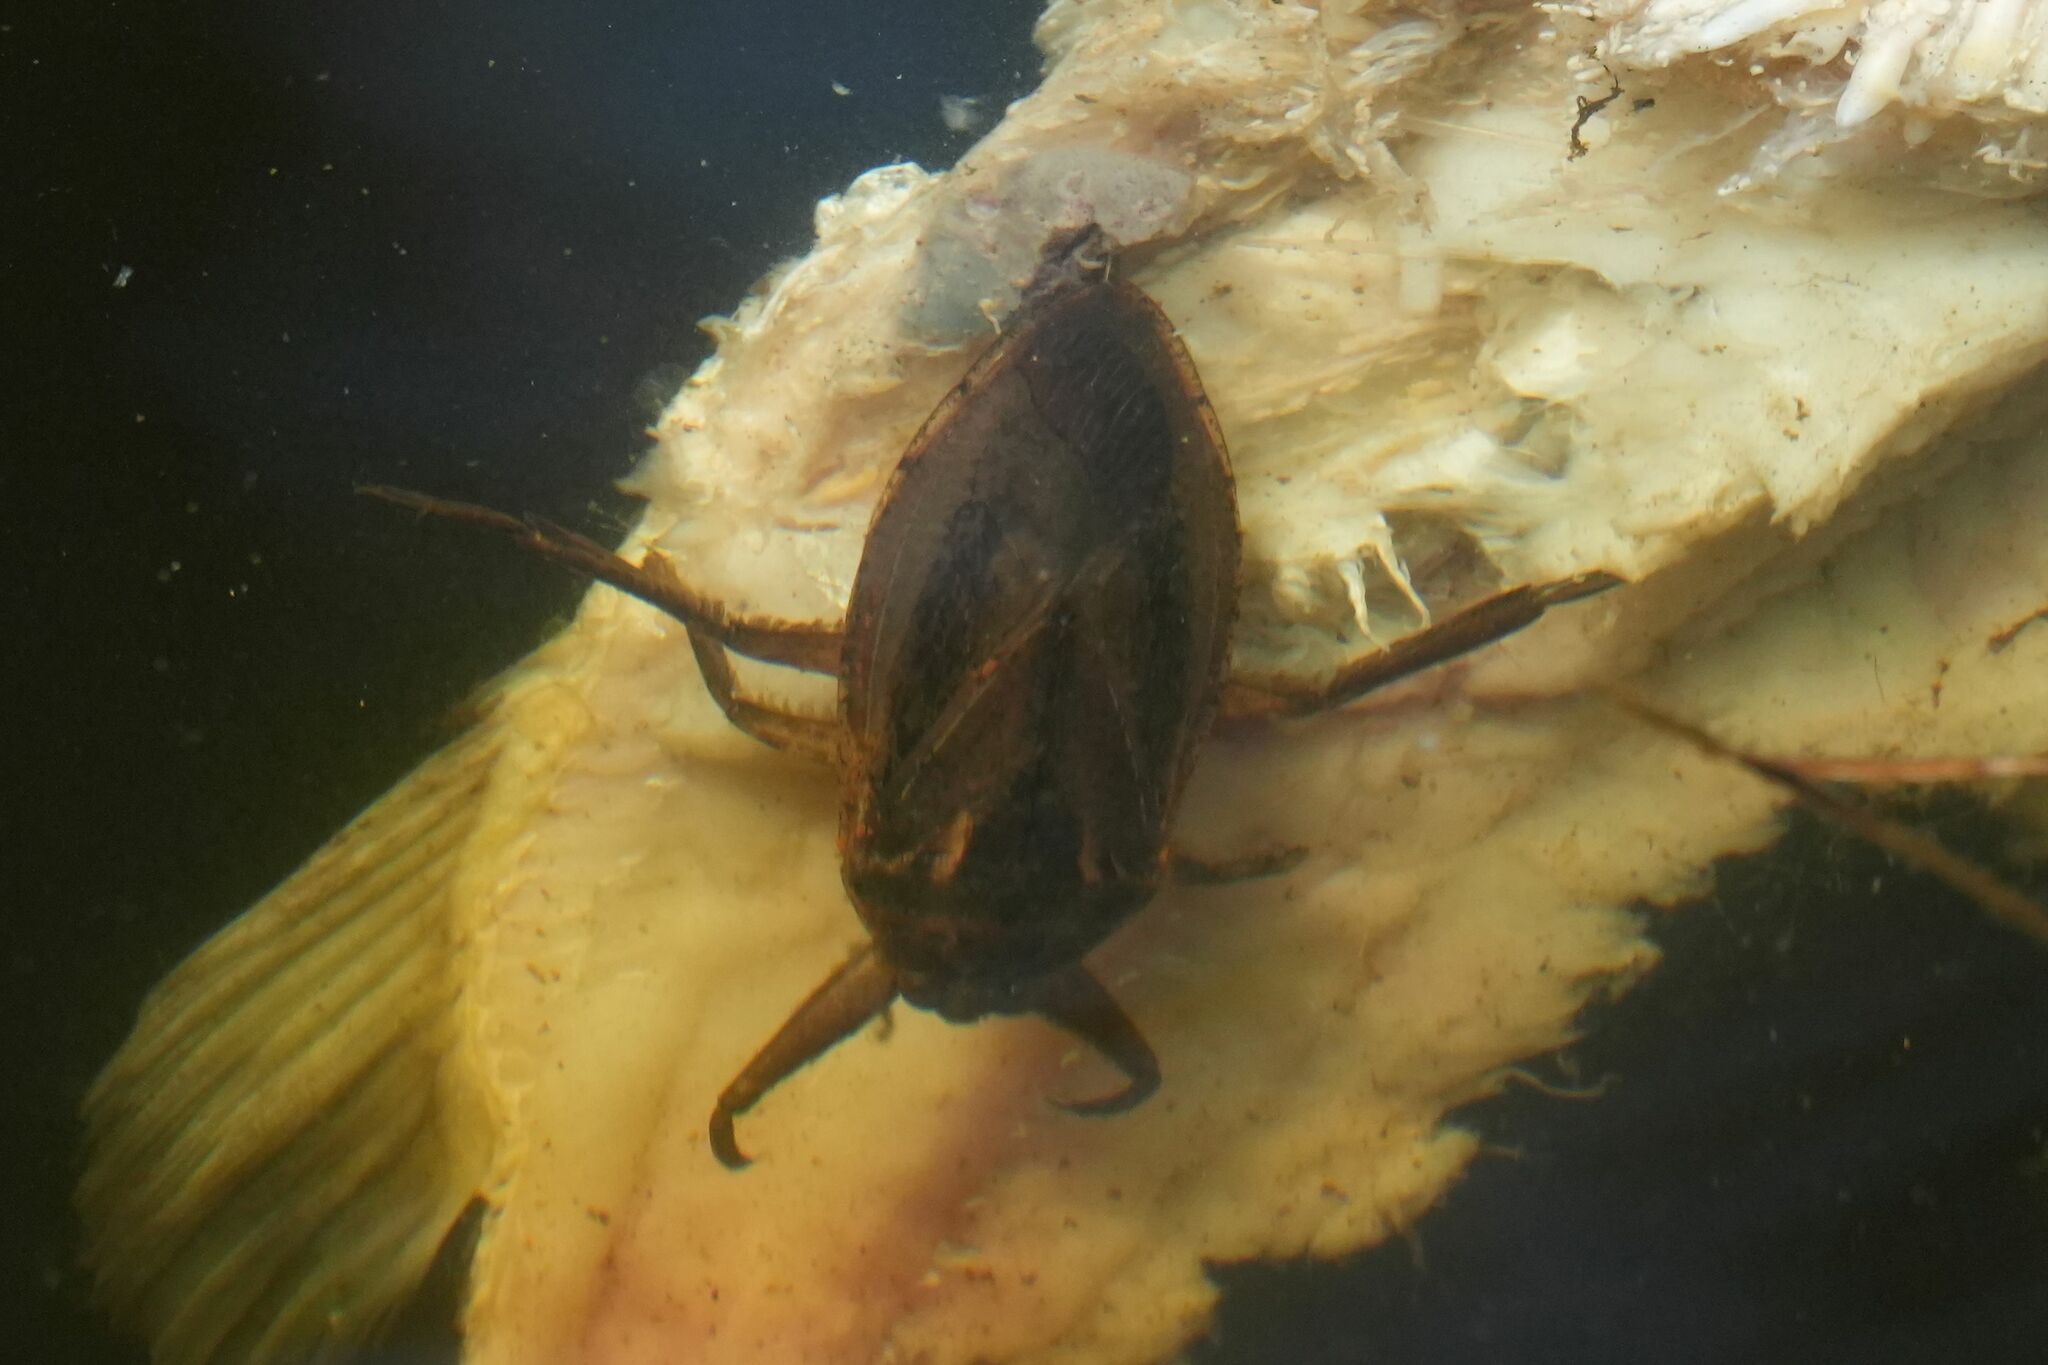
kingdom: Animalia
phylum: Arthropoda
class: Insecta
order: Hemiptera
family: Belostomatidae
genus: Lethocerus
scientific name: Lethocerus americanus
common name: Giant water bug
